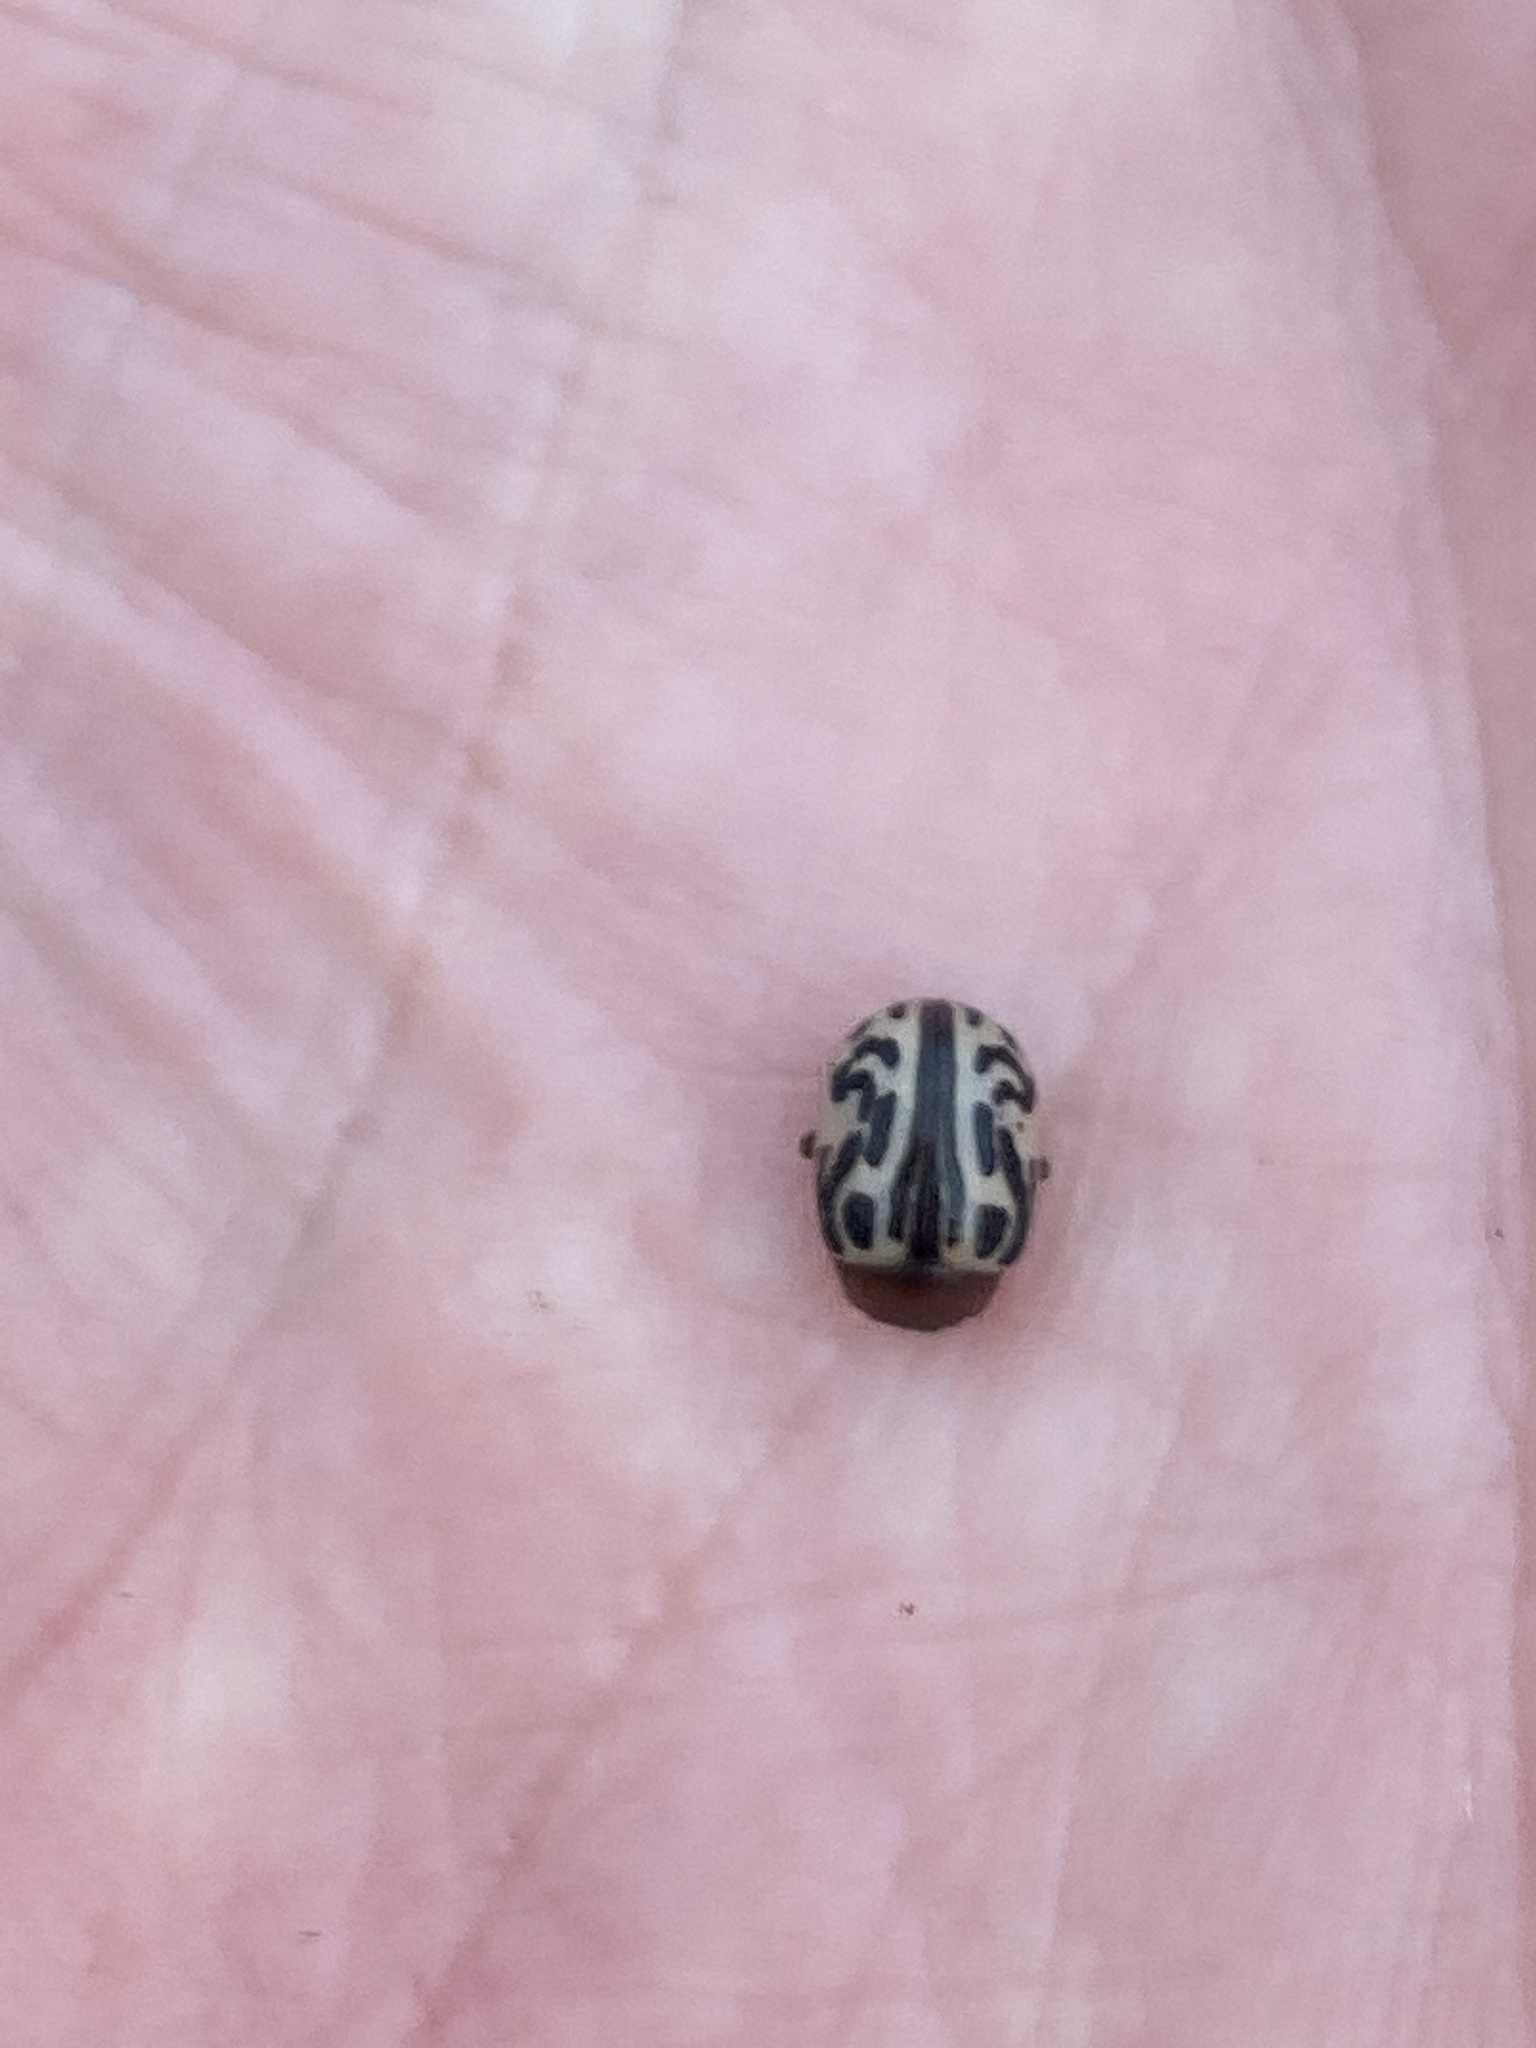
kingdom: Animalia
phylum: Arthropoda
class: Insecta
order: Coleoptera
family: Chrysomelidae
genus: Calligrapha
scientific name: Calligrapha
